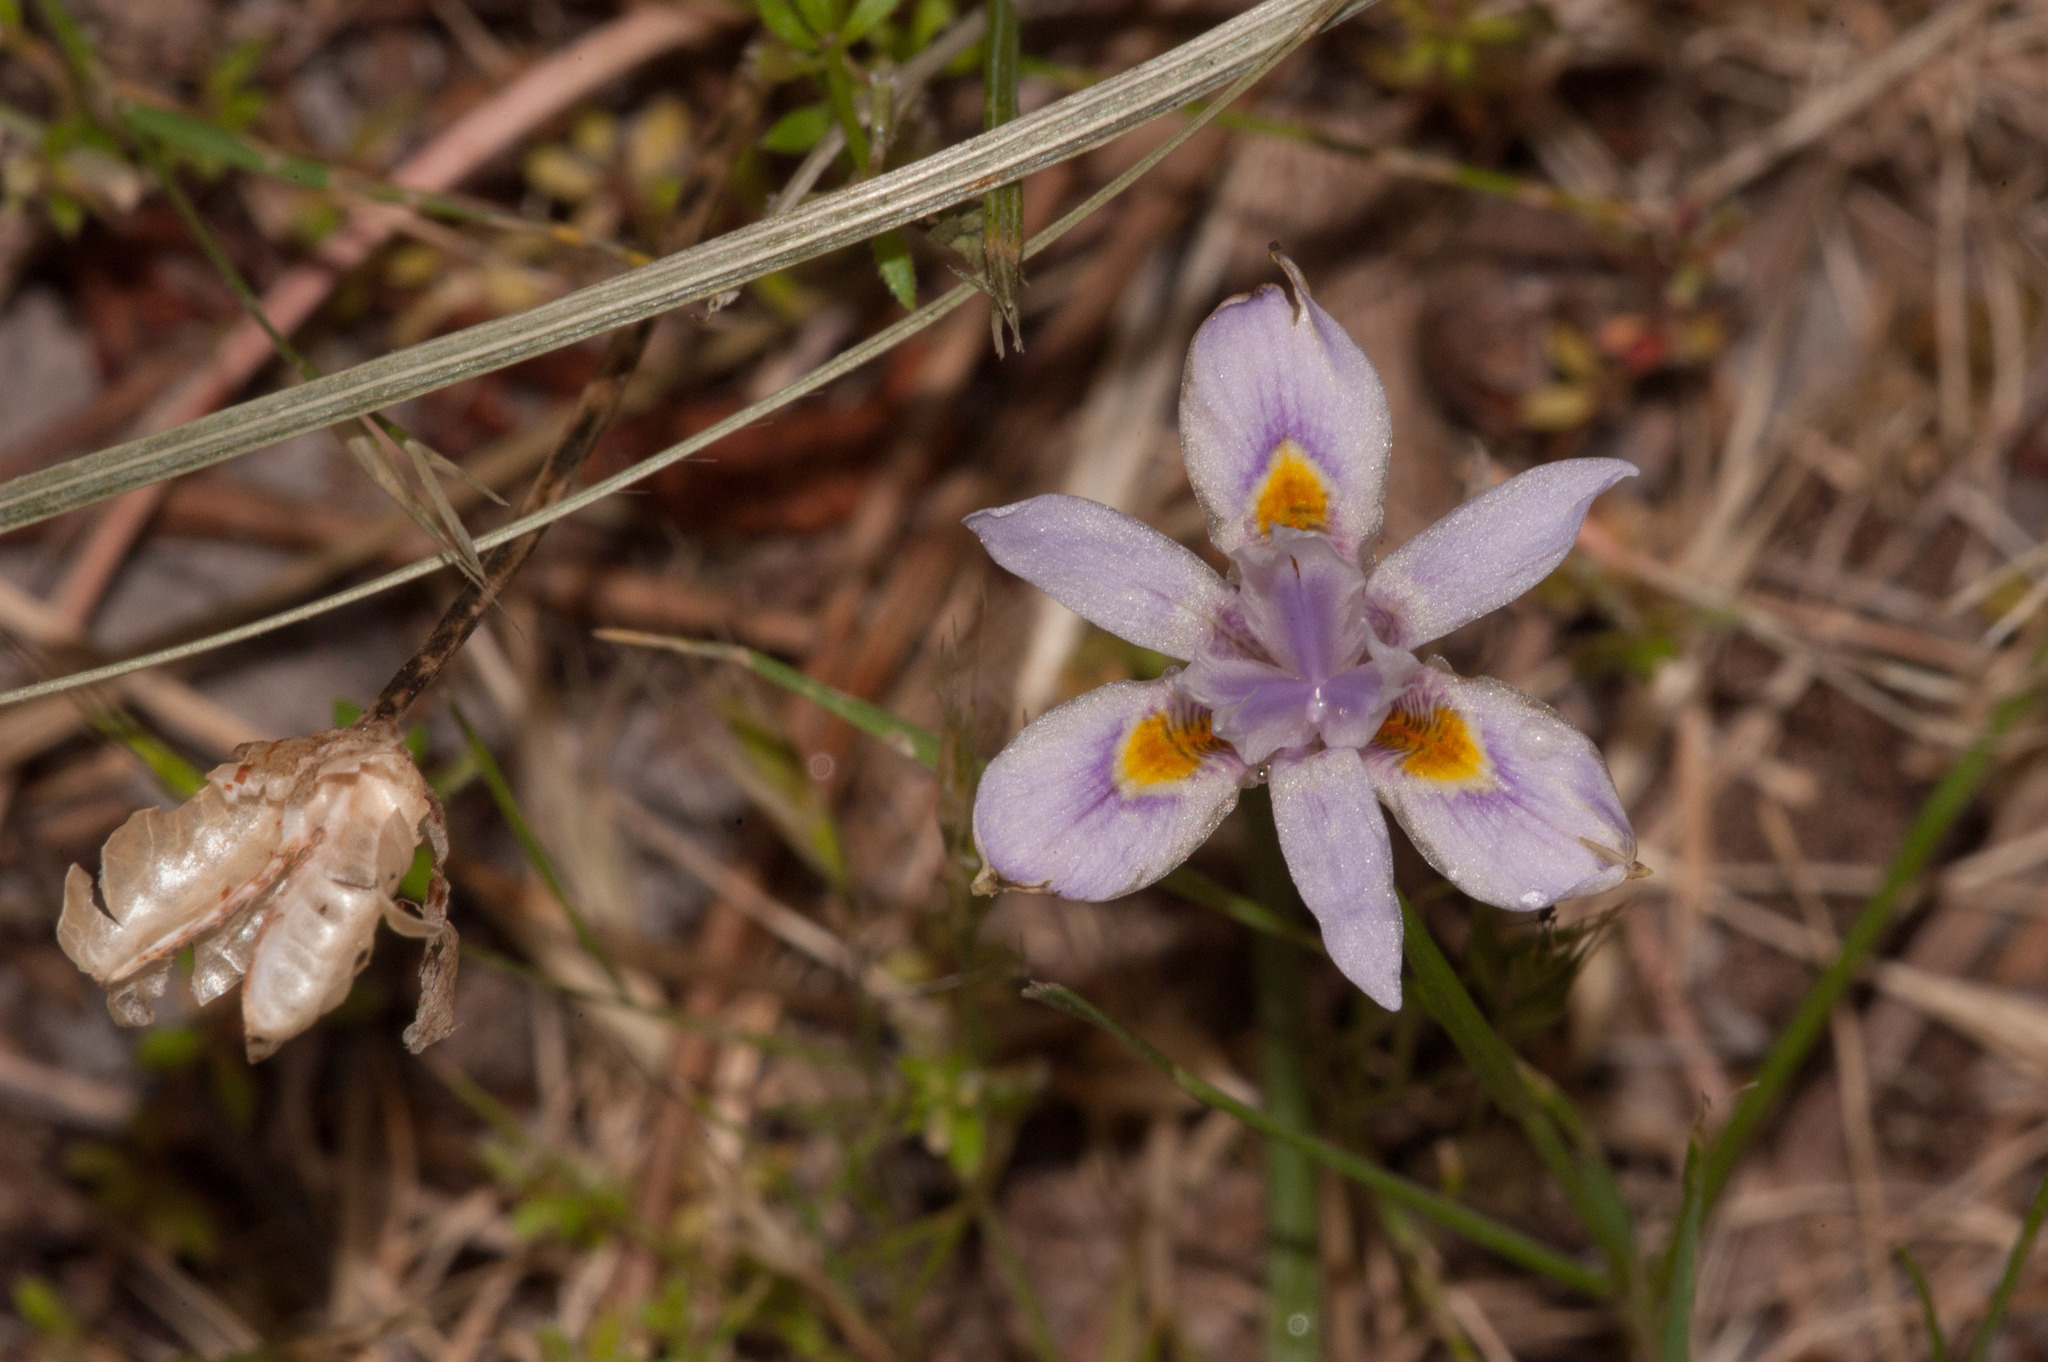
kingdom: Plantae
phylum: Tracheophyta
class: Liliopsida
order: Asparagales
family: Iridaceae
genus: Moraea
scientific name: Moraea setifolia
